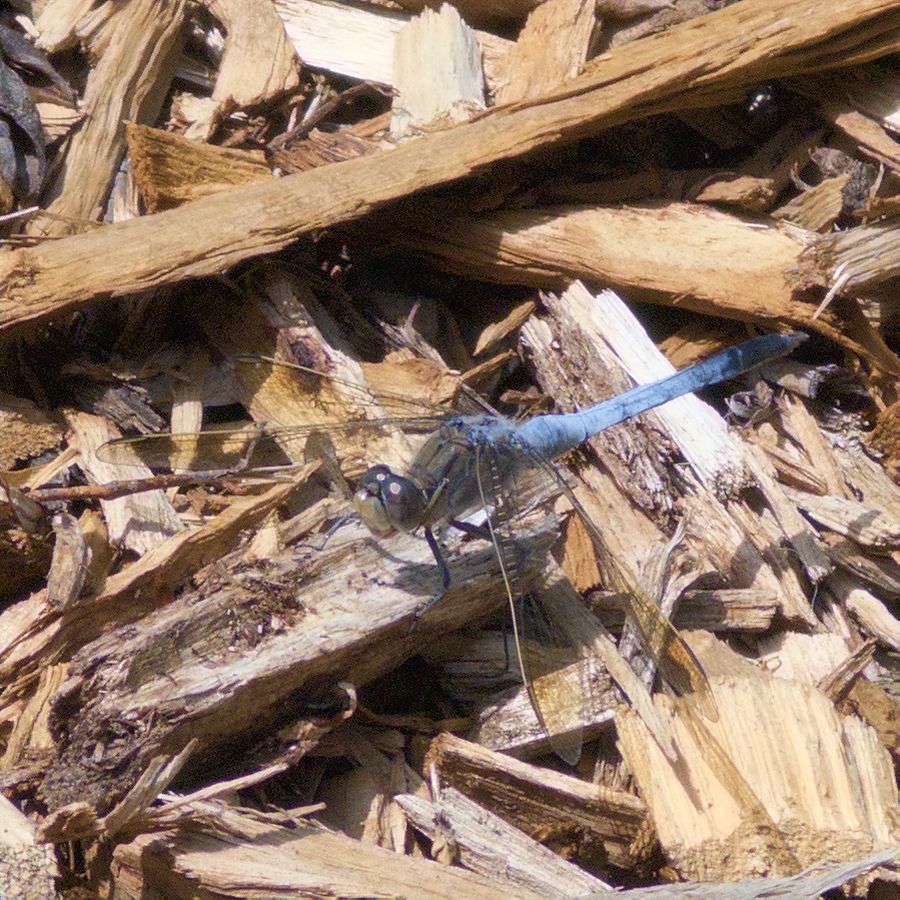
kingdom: Animalia
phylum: Arthropoda
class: Insecta
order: Odonata
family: Libellulidae
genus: Orthetrum
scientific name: Orthetrum caledonicum
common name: Blue skimmer
